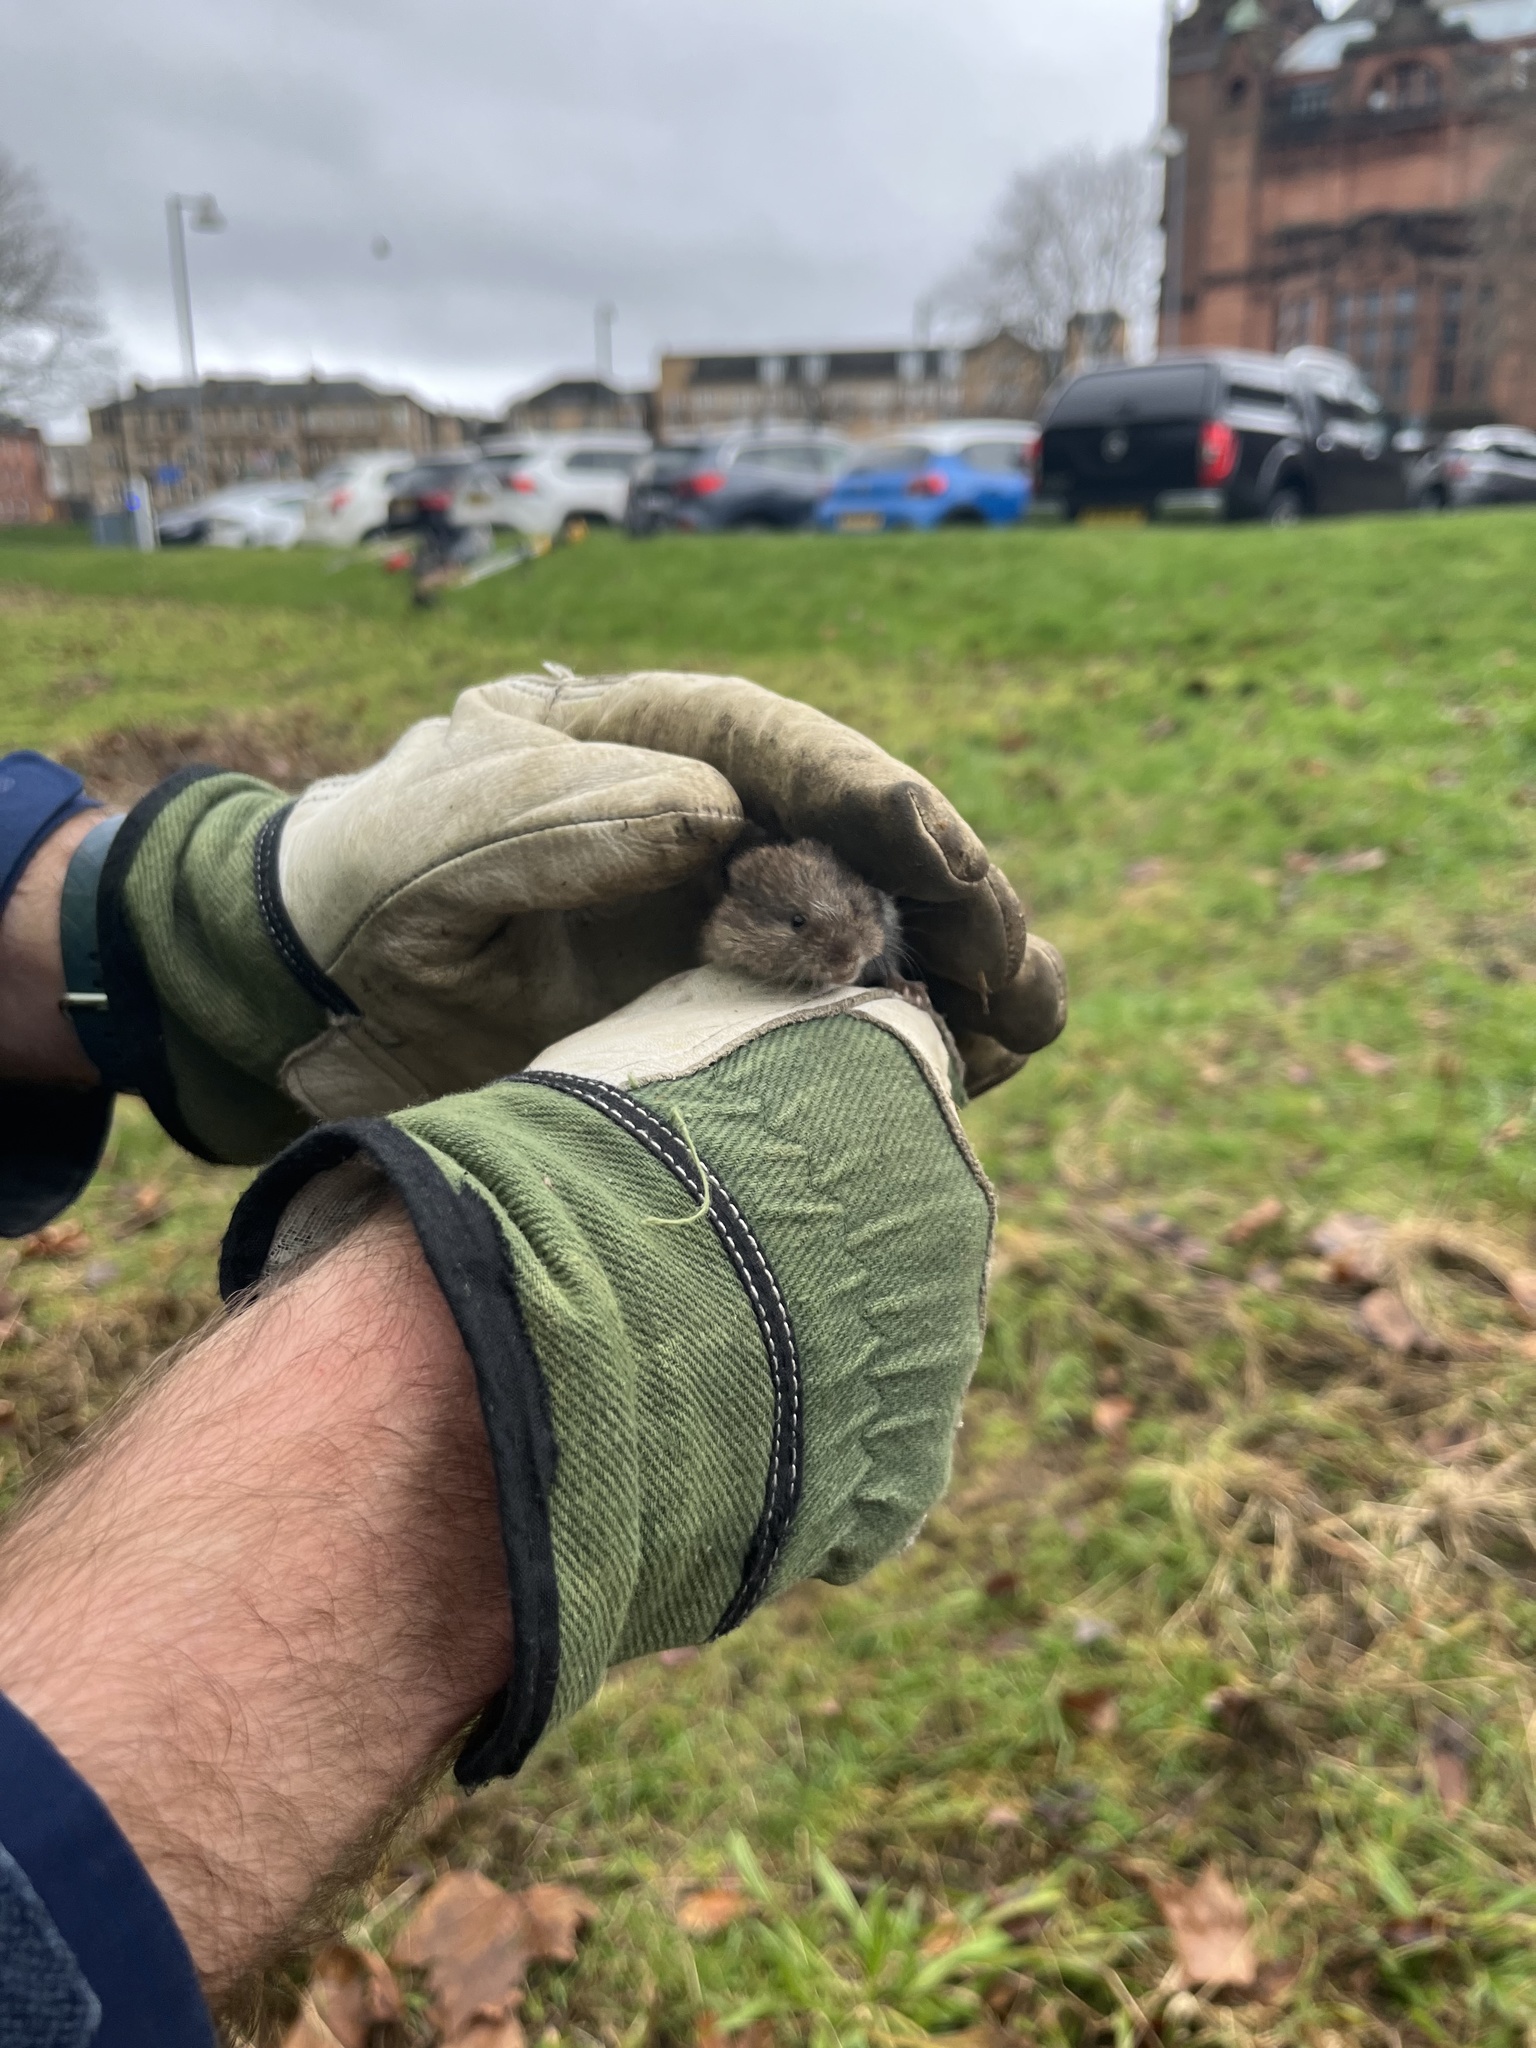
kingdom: Animalia
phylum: Chordata
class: Mammalia
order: Rodentia
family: Cricetidae
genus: Microtus
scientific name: Microtus agrestis
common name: Field vole
